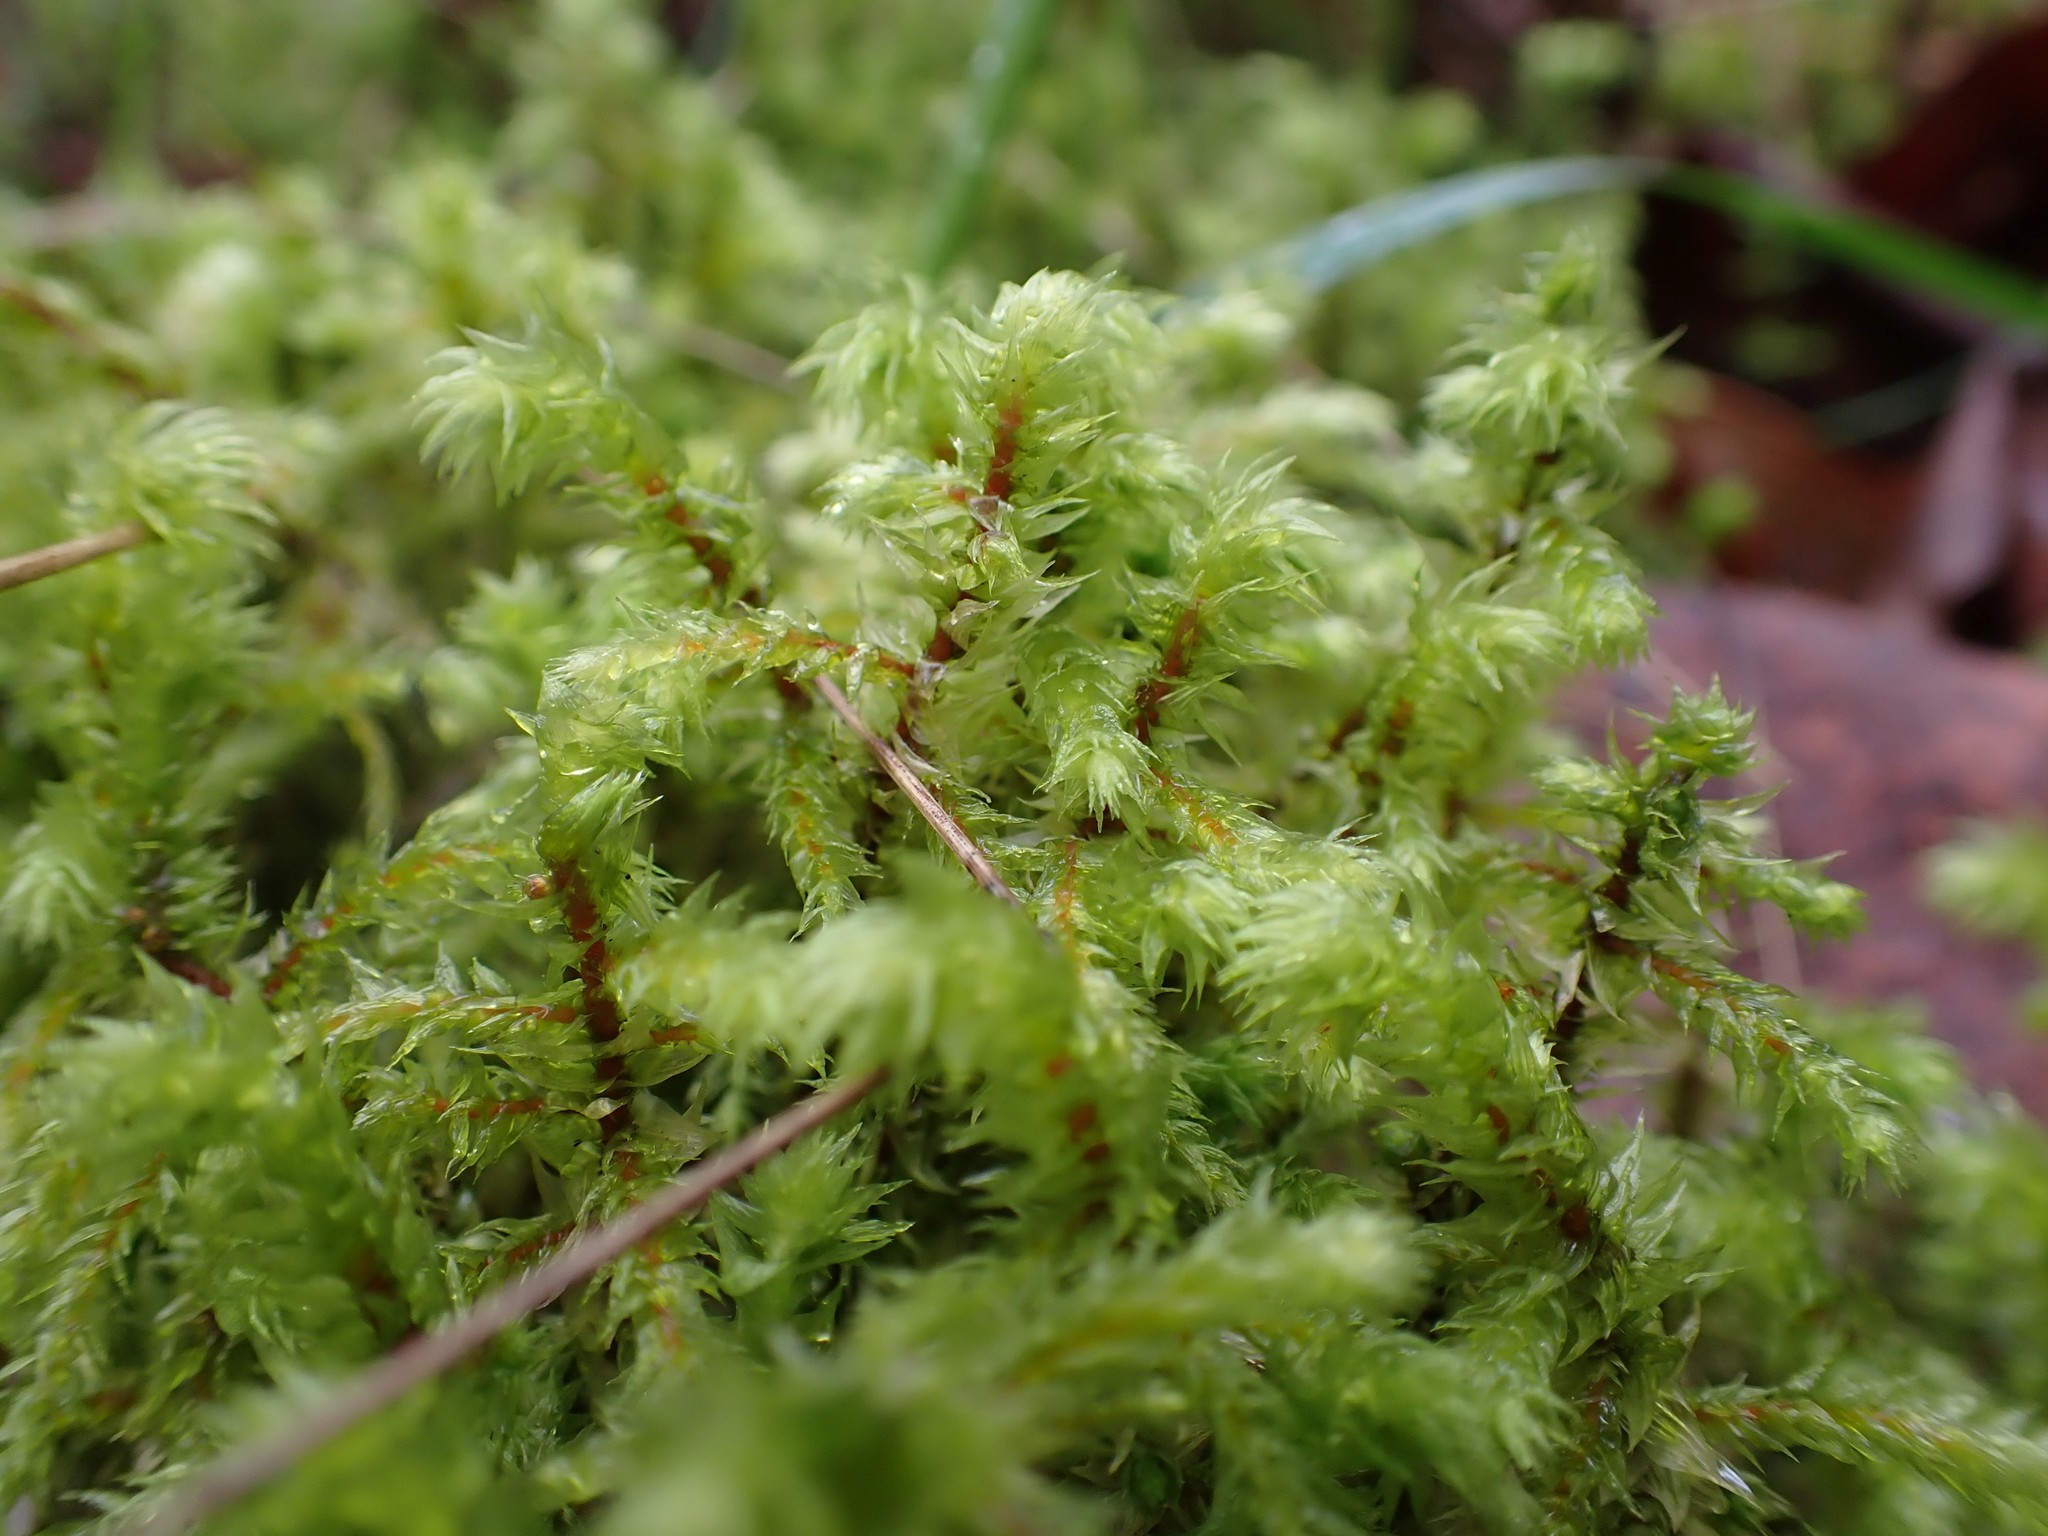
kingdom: Plantae
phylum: Bryophyta
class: Bryopsida
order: Hypnales
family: Hylocomiaceae
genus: Hylocomiadelphus
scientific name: Hylocomiadelphus triquetrus
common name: Rough goose neck moss
